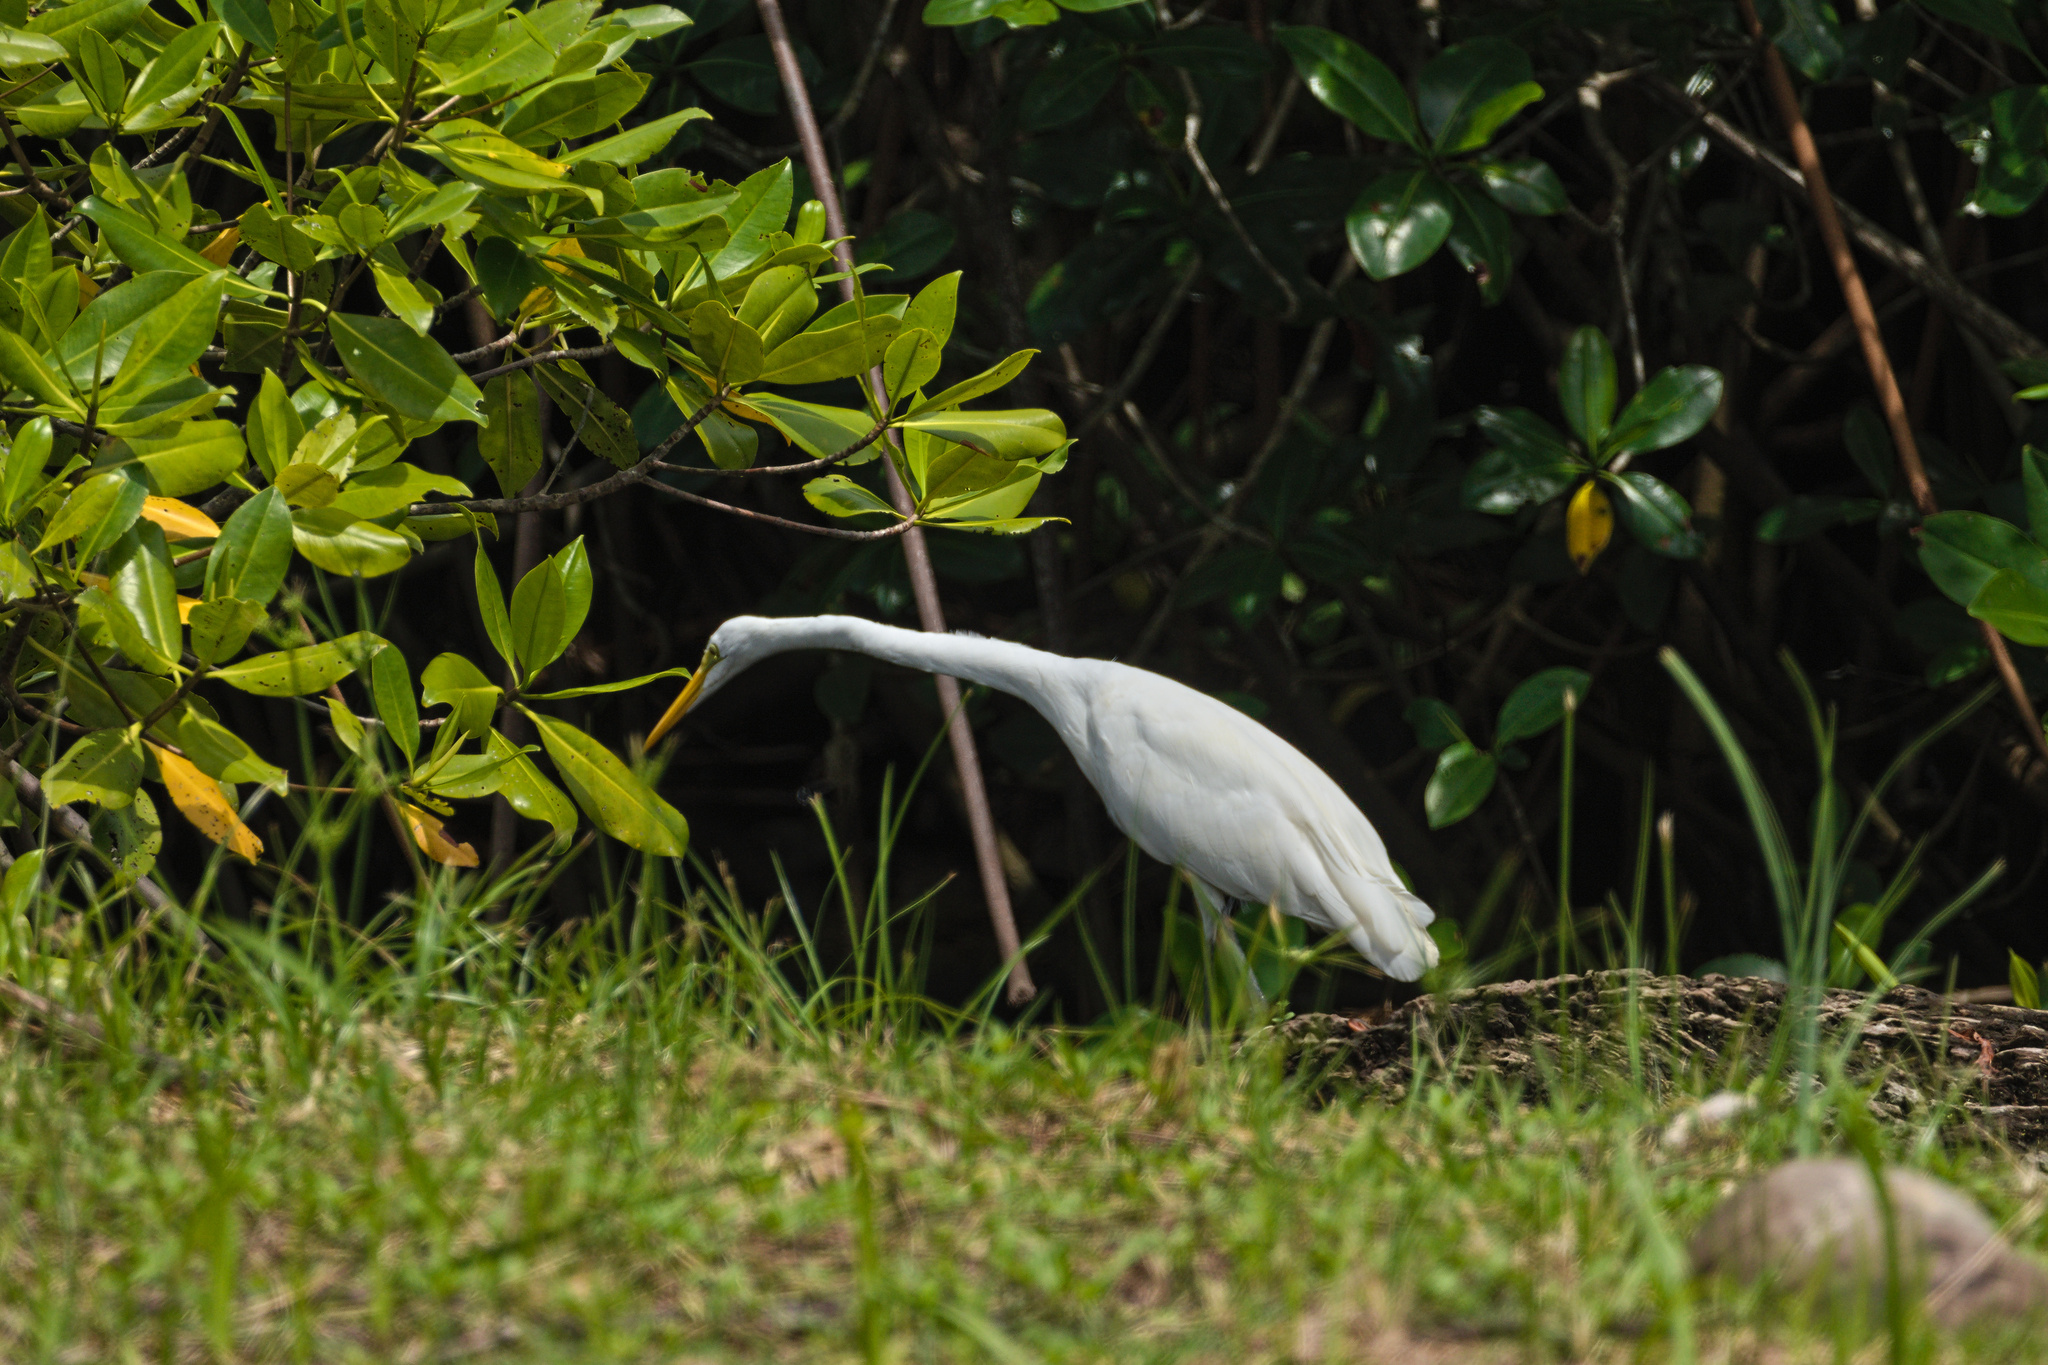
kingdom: Animalia
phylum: Chordata
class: Aves
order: Pelecaniformes
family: Ardeidae
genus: Ardea
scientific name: Ardea alba
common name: Great egret
